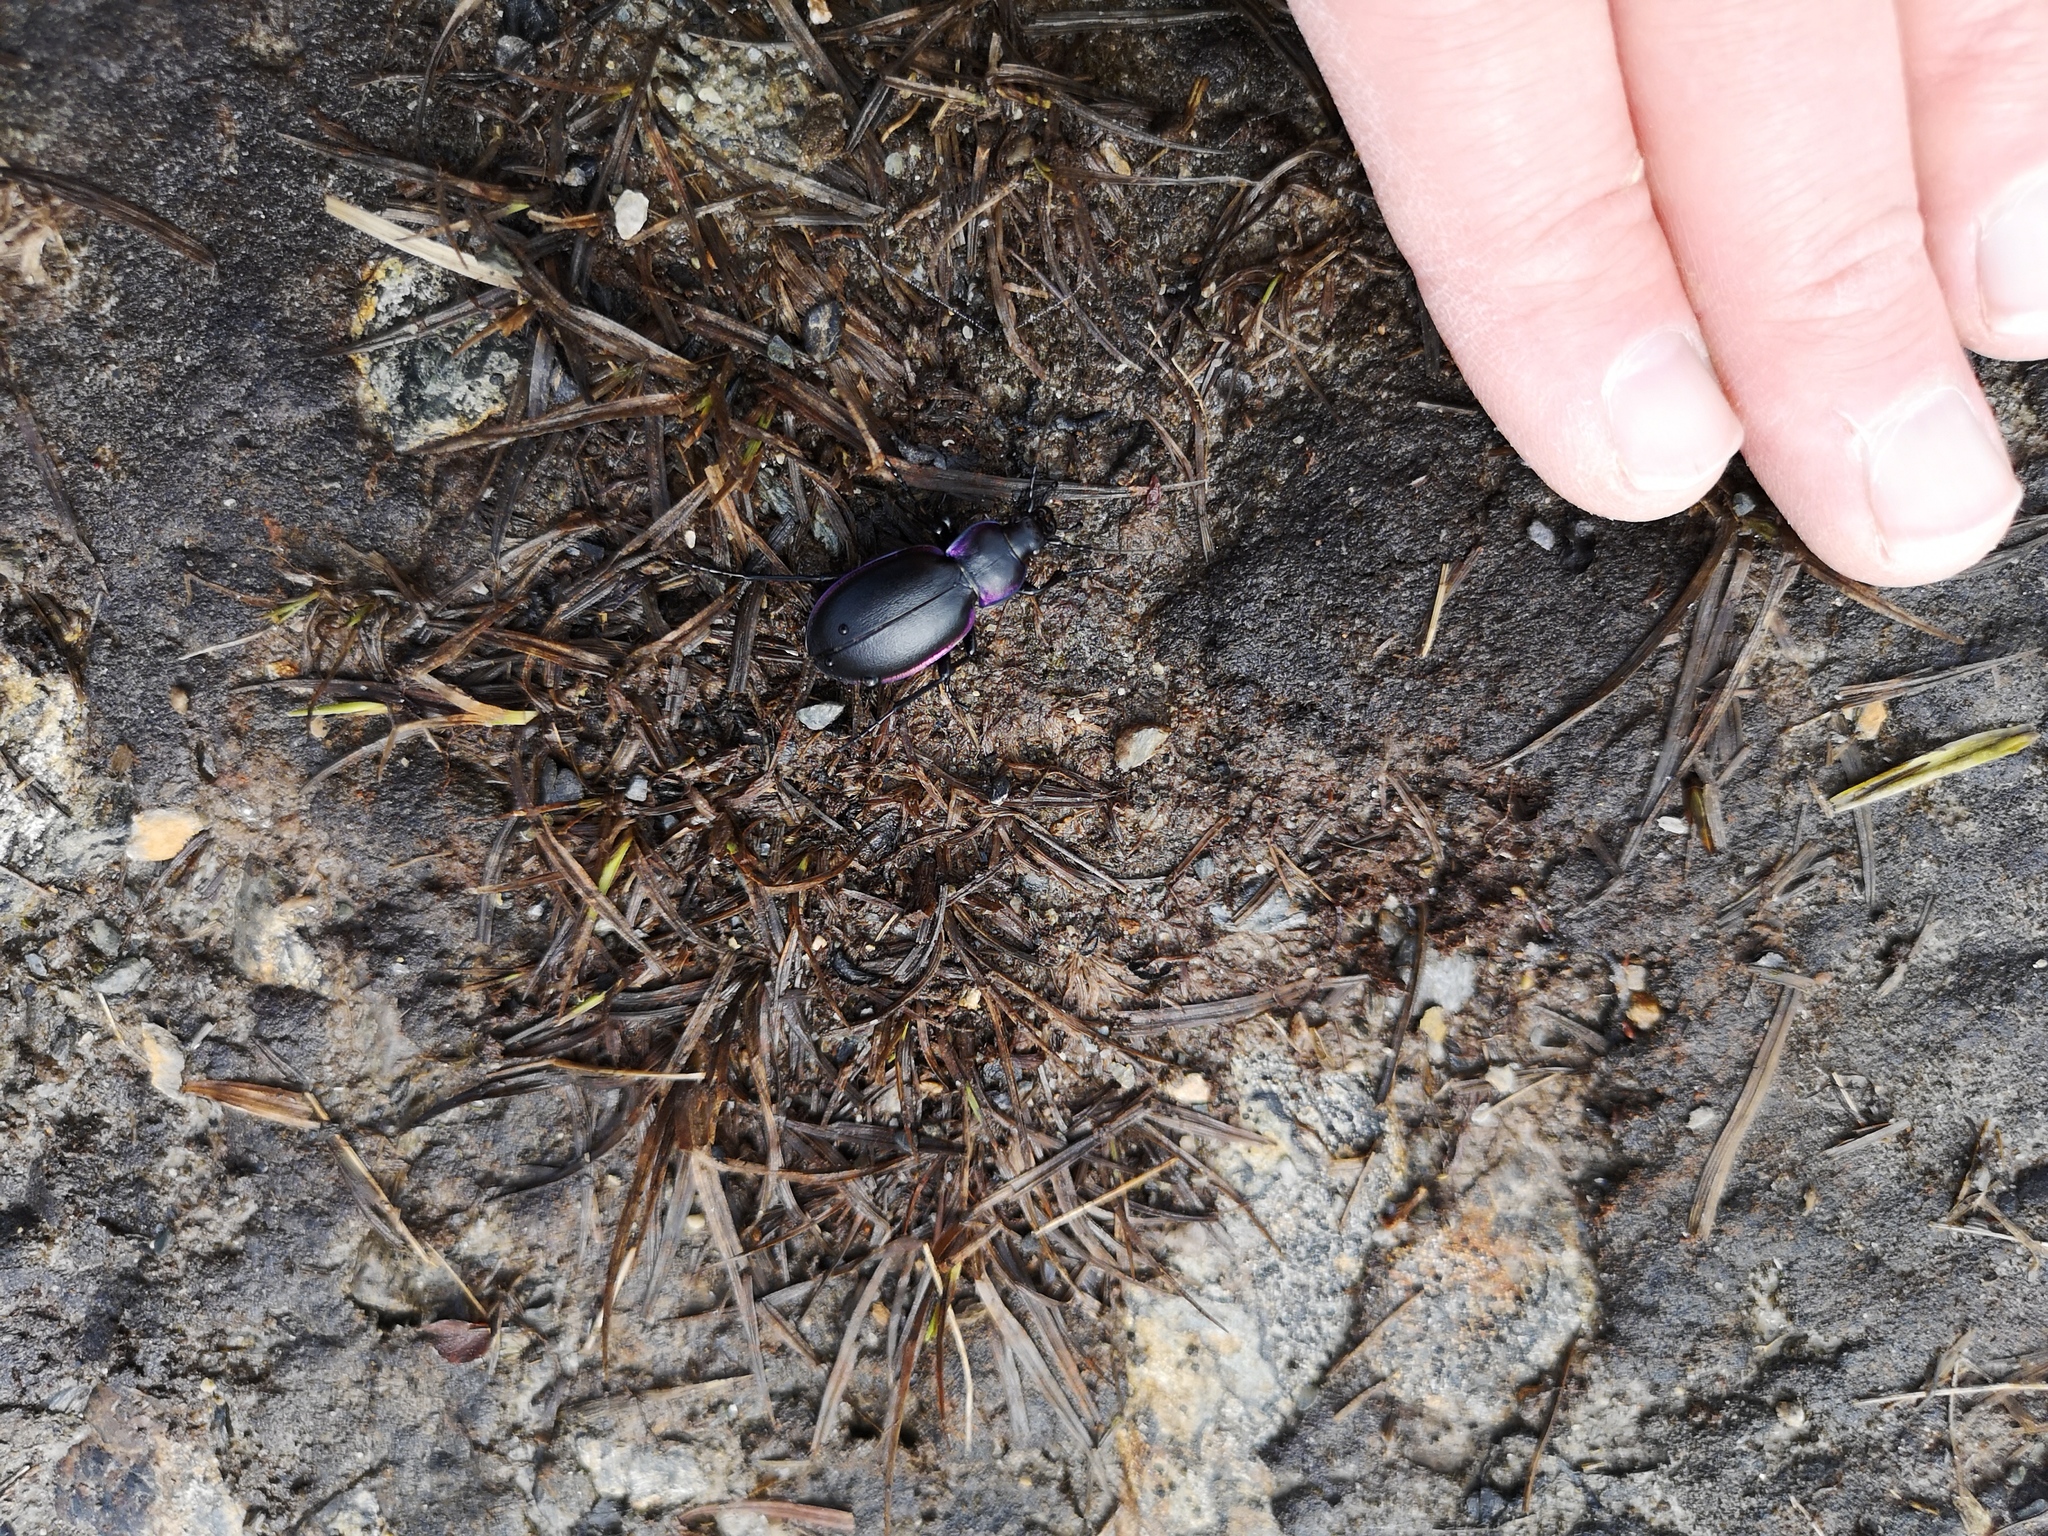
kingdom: Animalia
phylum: Arthropoda
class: Insecta
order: Coleoptera
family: Carabidae
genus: Carabus
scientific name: Carabus violaceus
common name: Violet ground beetle
